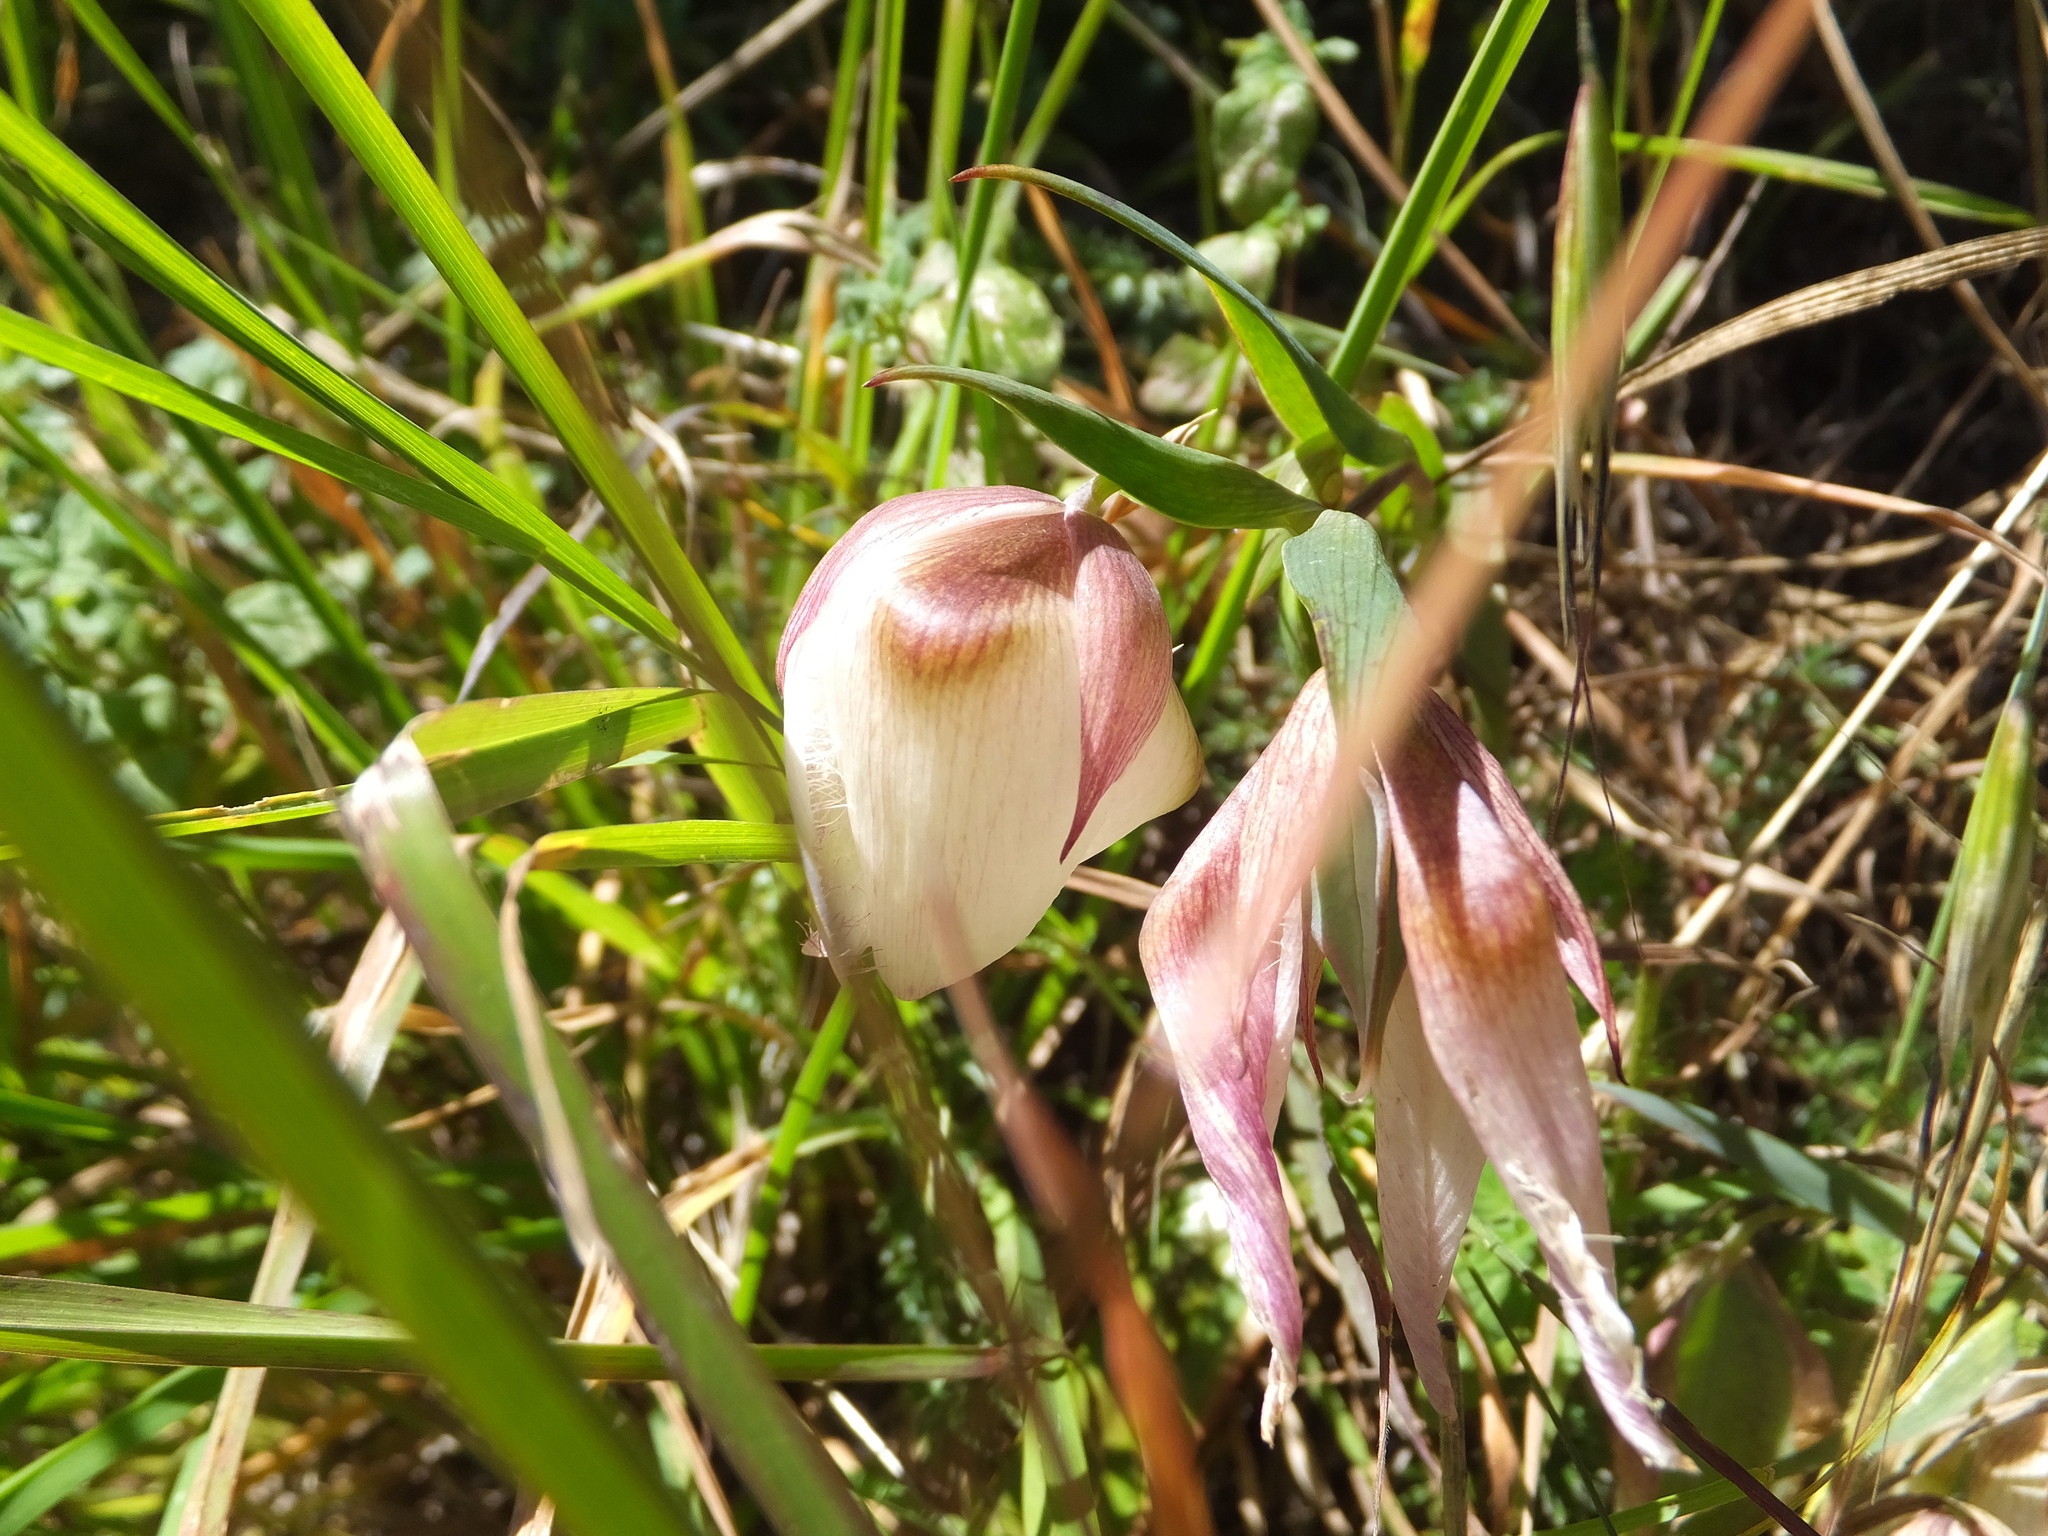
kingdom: Plantae
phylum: Tracheophyta
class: Liliopsida
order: Liliales
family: Liliaceae
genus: Calochortus
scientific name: Calochortus albus
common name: Fairy-lantern
